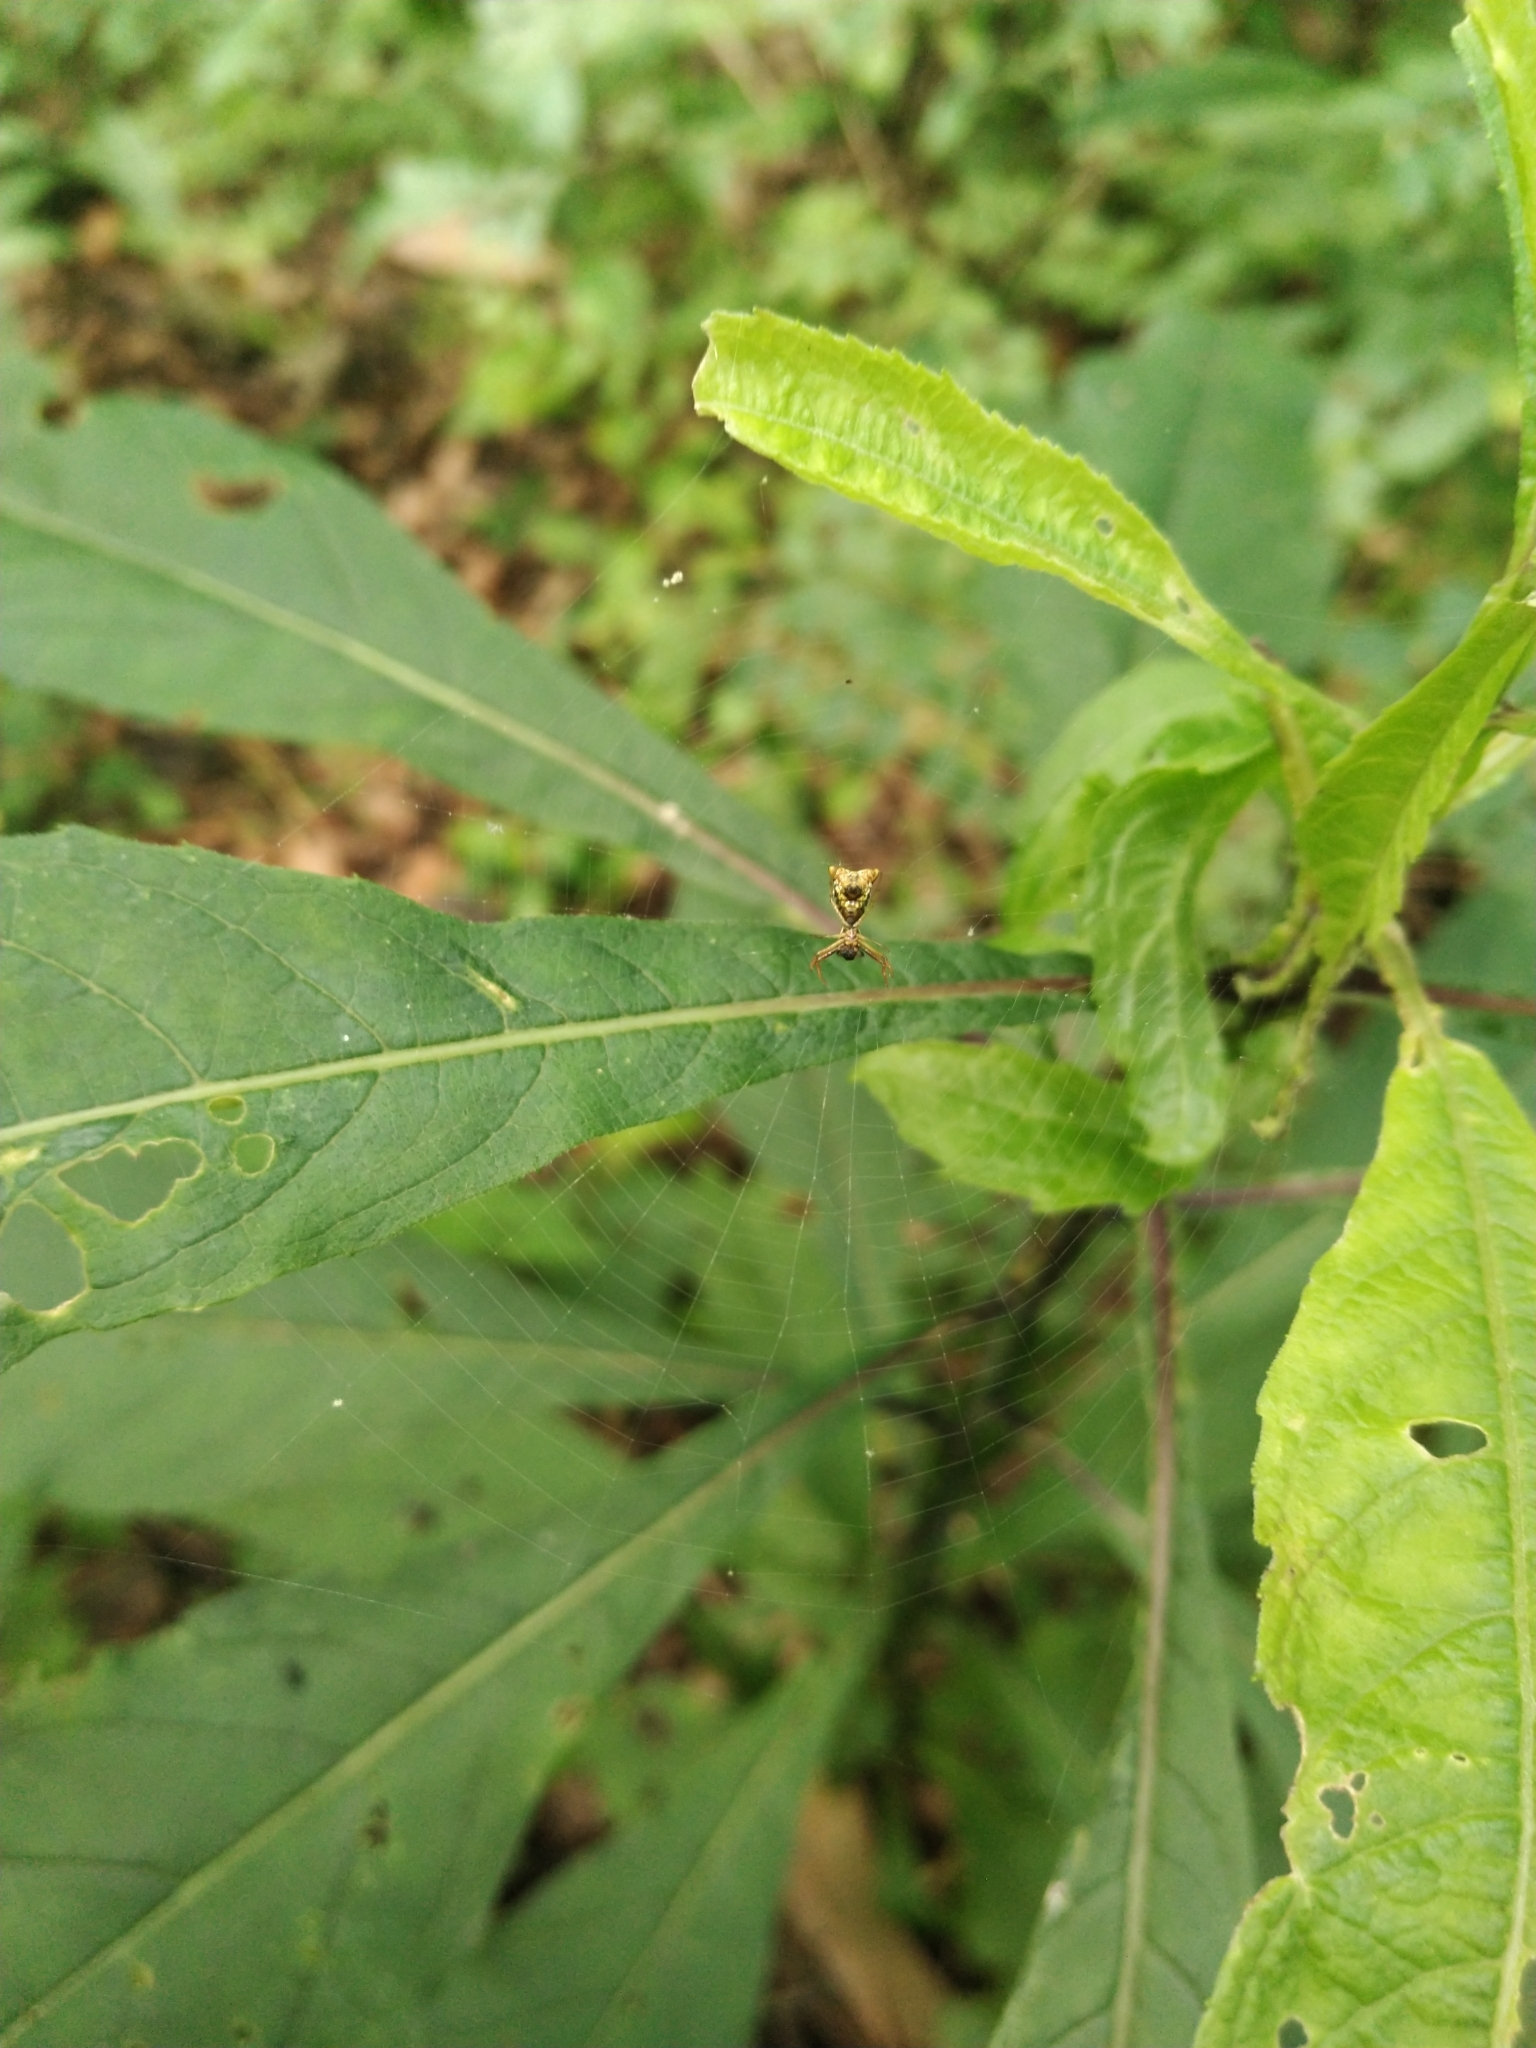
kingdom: Animalia
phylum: Arthropoda
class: Arachnida
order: Araneae
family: Araneidae
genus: Micrathena
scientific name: Micrathena sagittata
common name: Orb weavers
